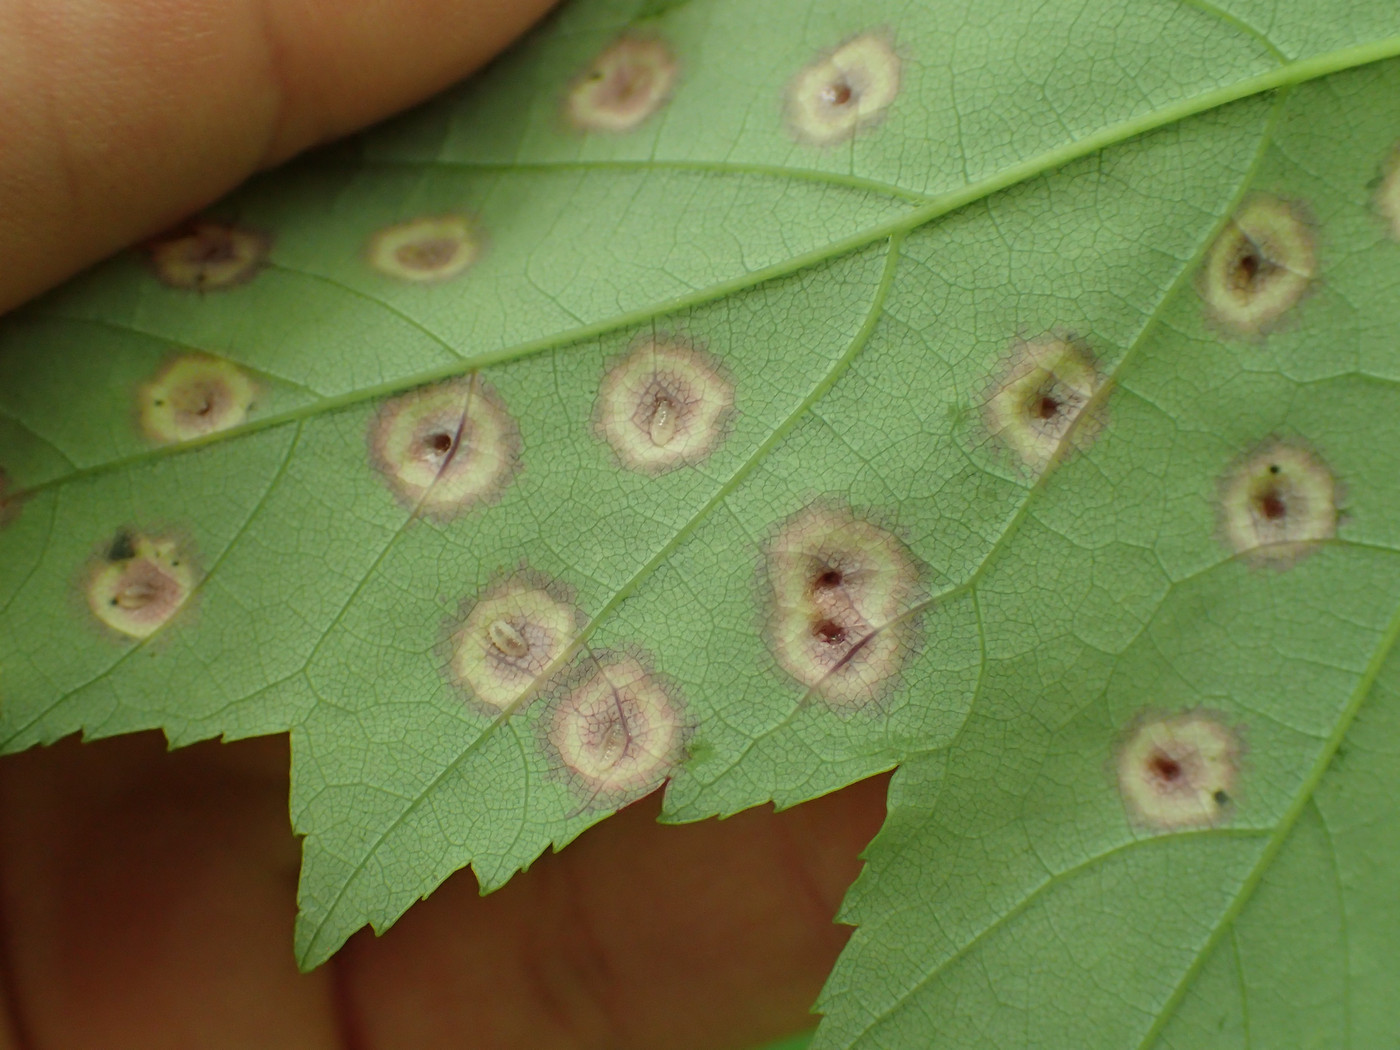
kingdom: Animalia
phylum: Arthropoda
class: Insecta
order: Diptera
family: Cecidomyiidae
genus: Acericecis
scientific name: Acericecis ocellaris
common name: Ocellate gall midge
